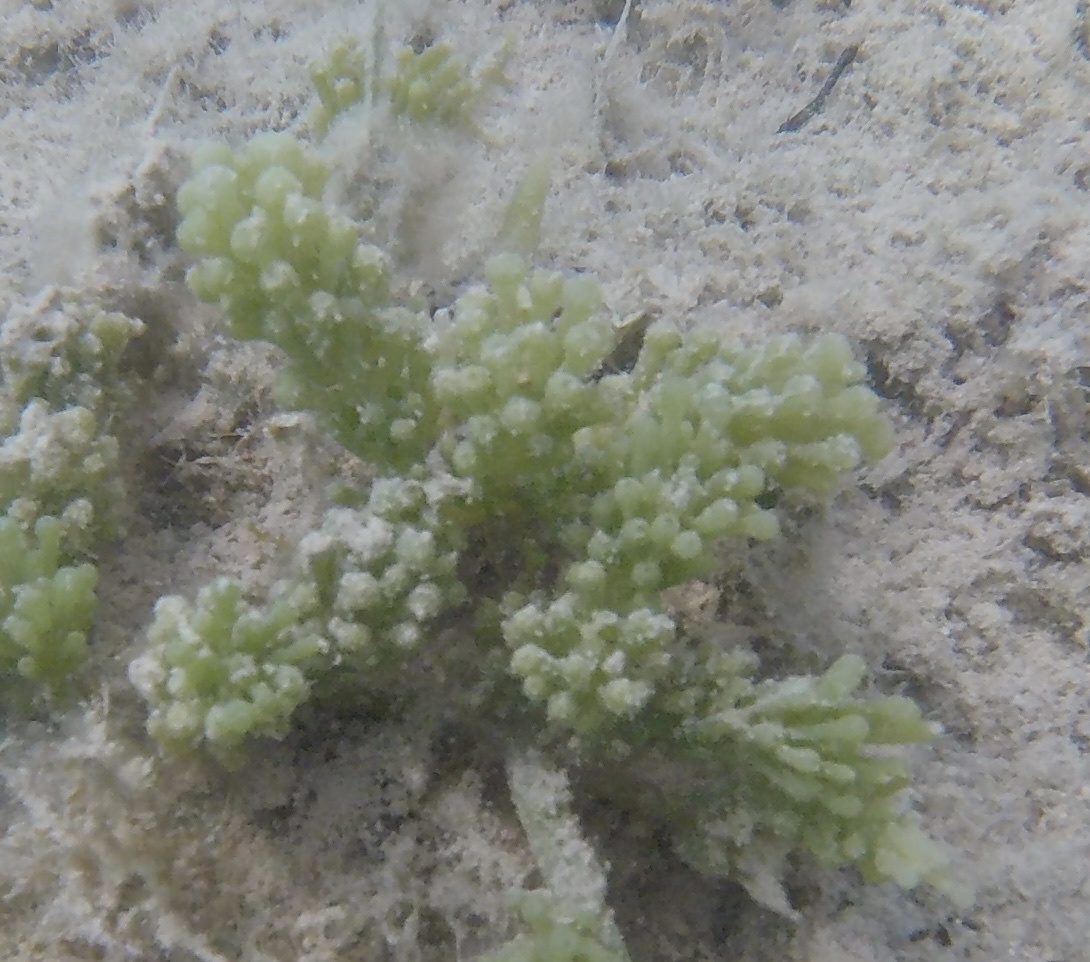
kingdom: Plantae
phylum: Chlorophyta
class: Ulvophyceae
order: Bryopsidales
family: Caulerpaceae
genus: Caulerpa
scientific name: Caulerpa racemosa
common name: Green grape algae
